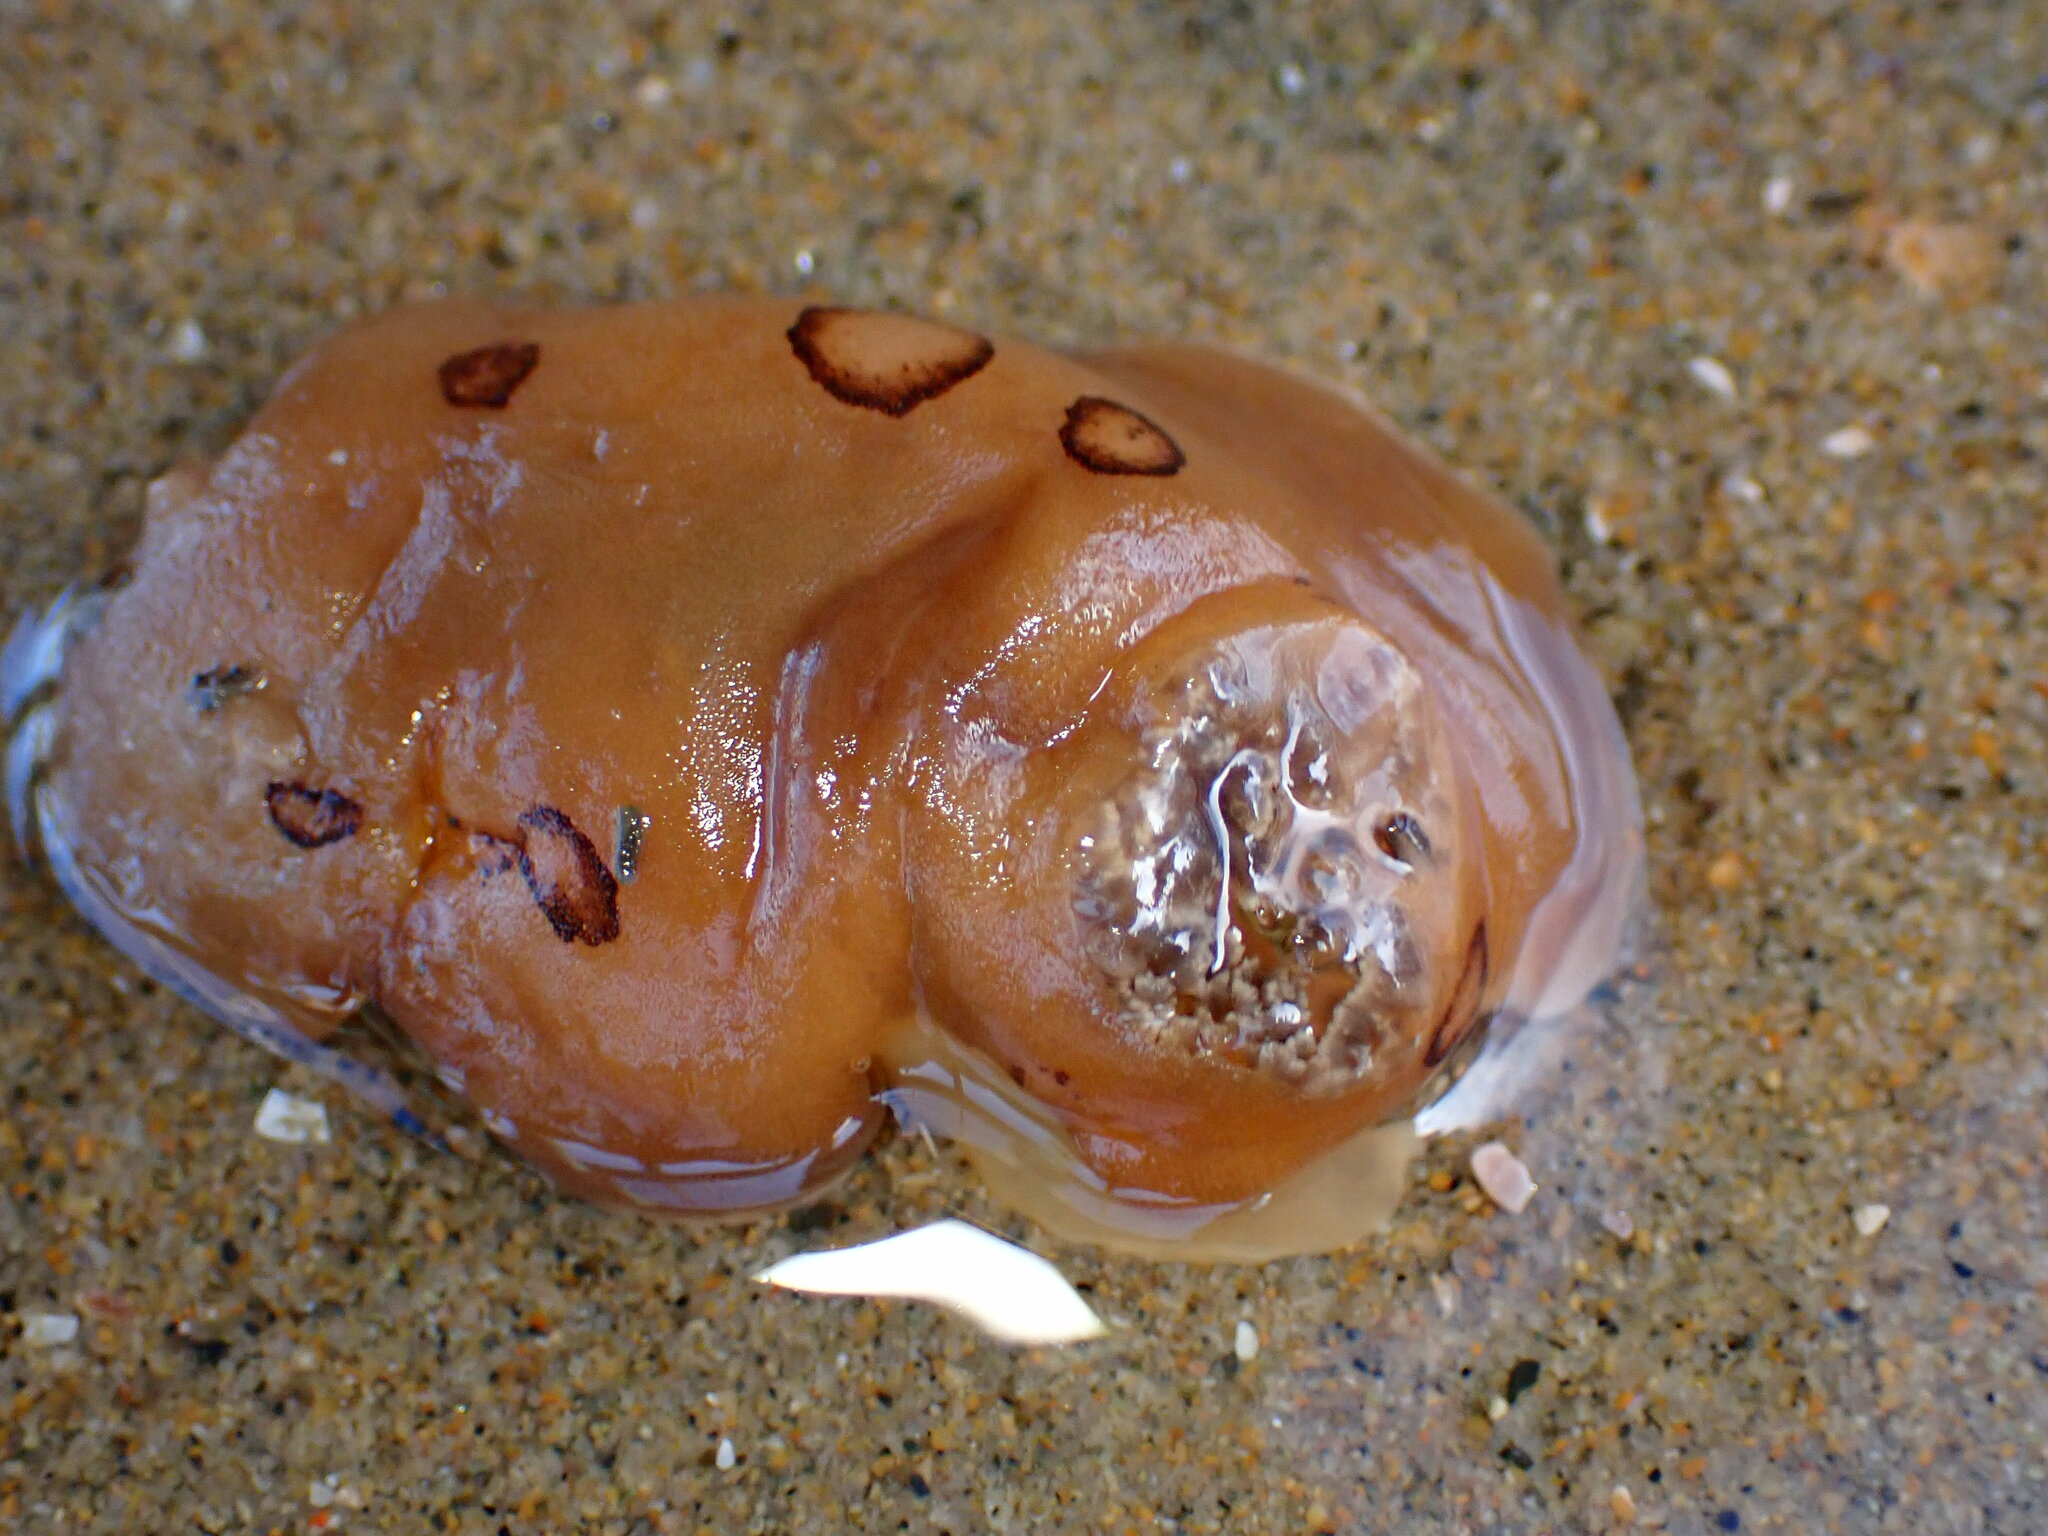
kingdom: Animalia
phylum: Mollusca
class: Gastropoda
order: Nudibranchia
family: Discodorididae
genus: Diaulula
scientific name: Diaulula sandiegensis
